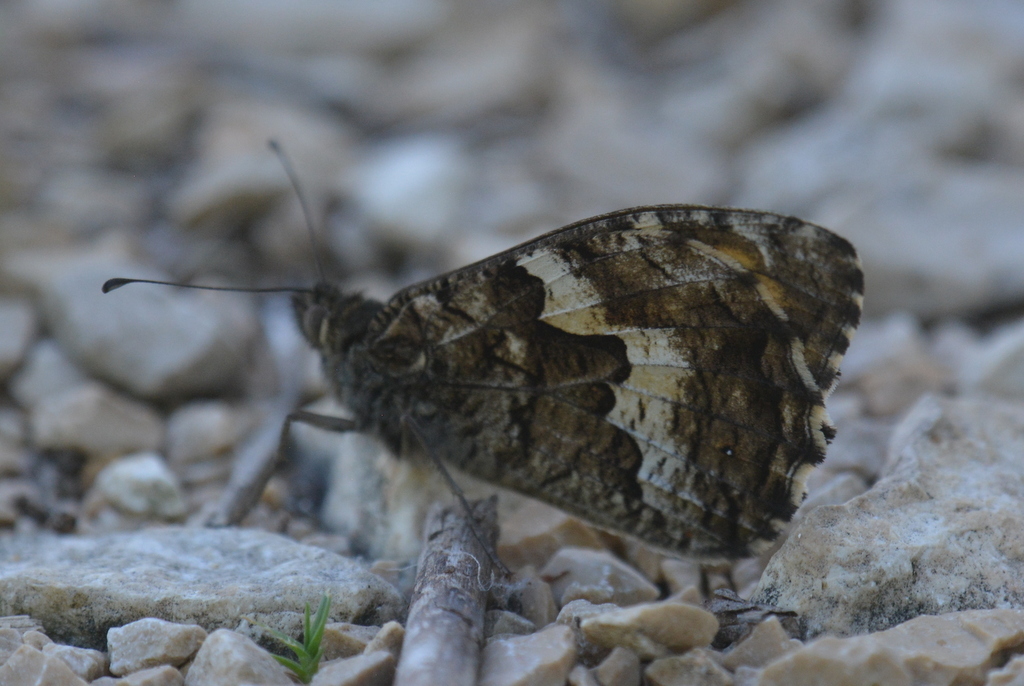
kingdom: Animalia
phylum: Arthropoda
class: Insecta
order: Lepidoptera
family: Nymphalidae
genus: Hipparchia
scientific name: Hipparchia semele
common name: Grayling
